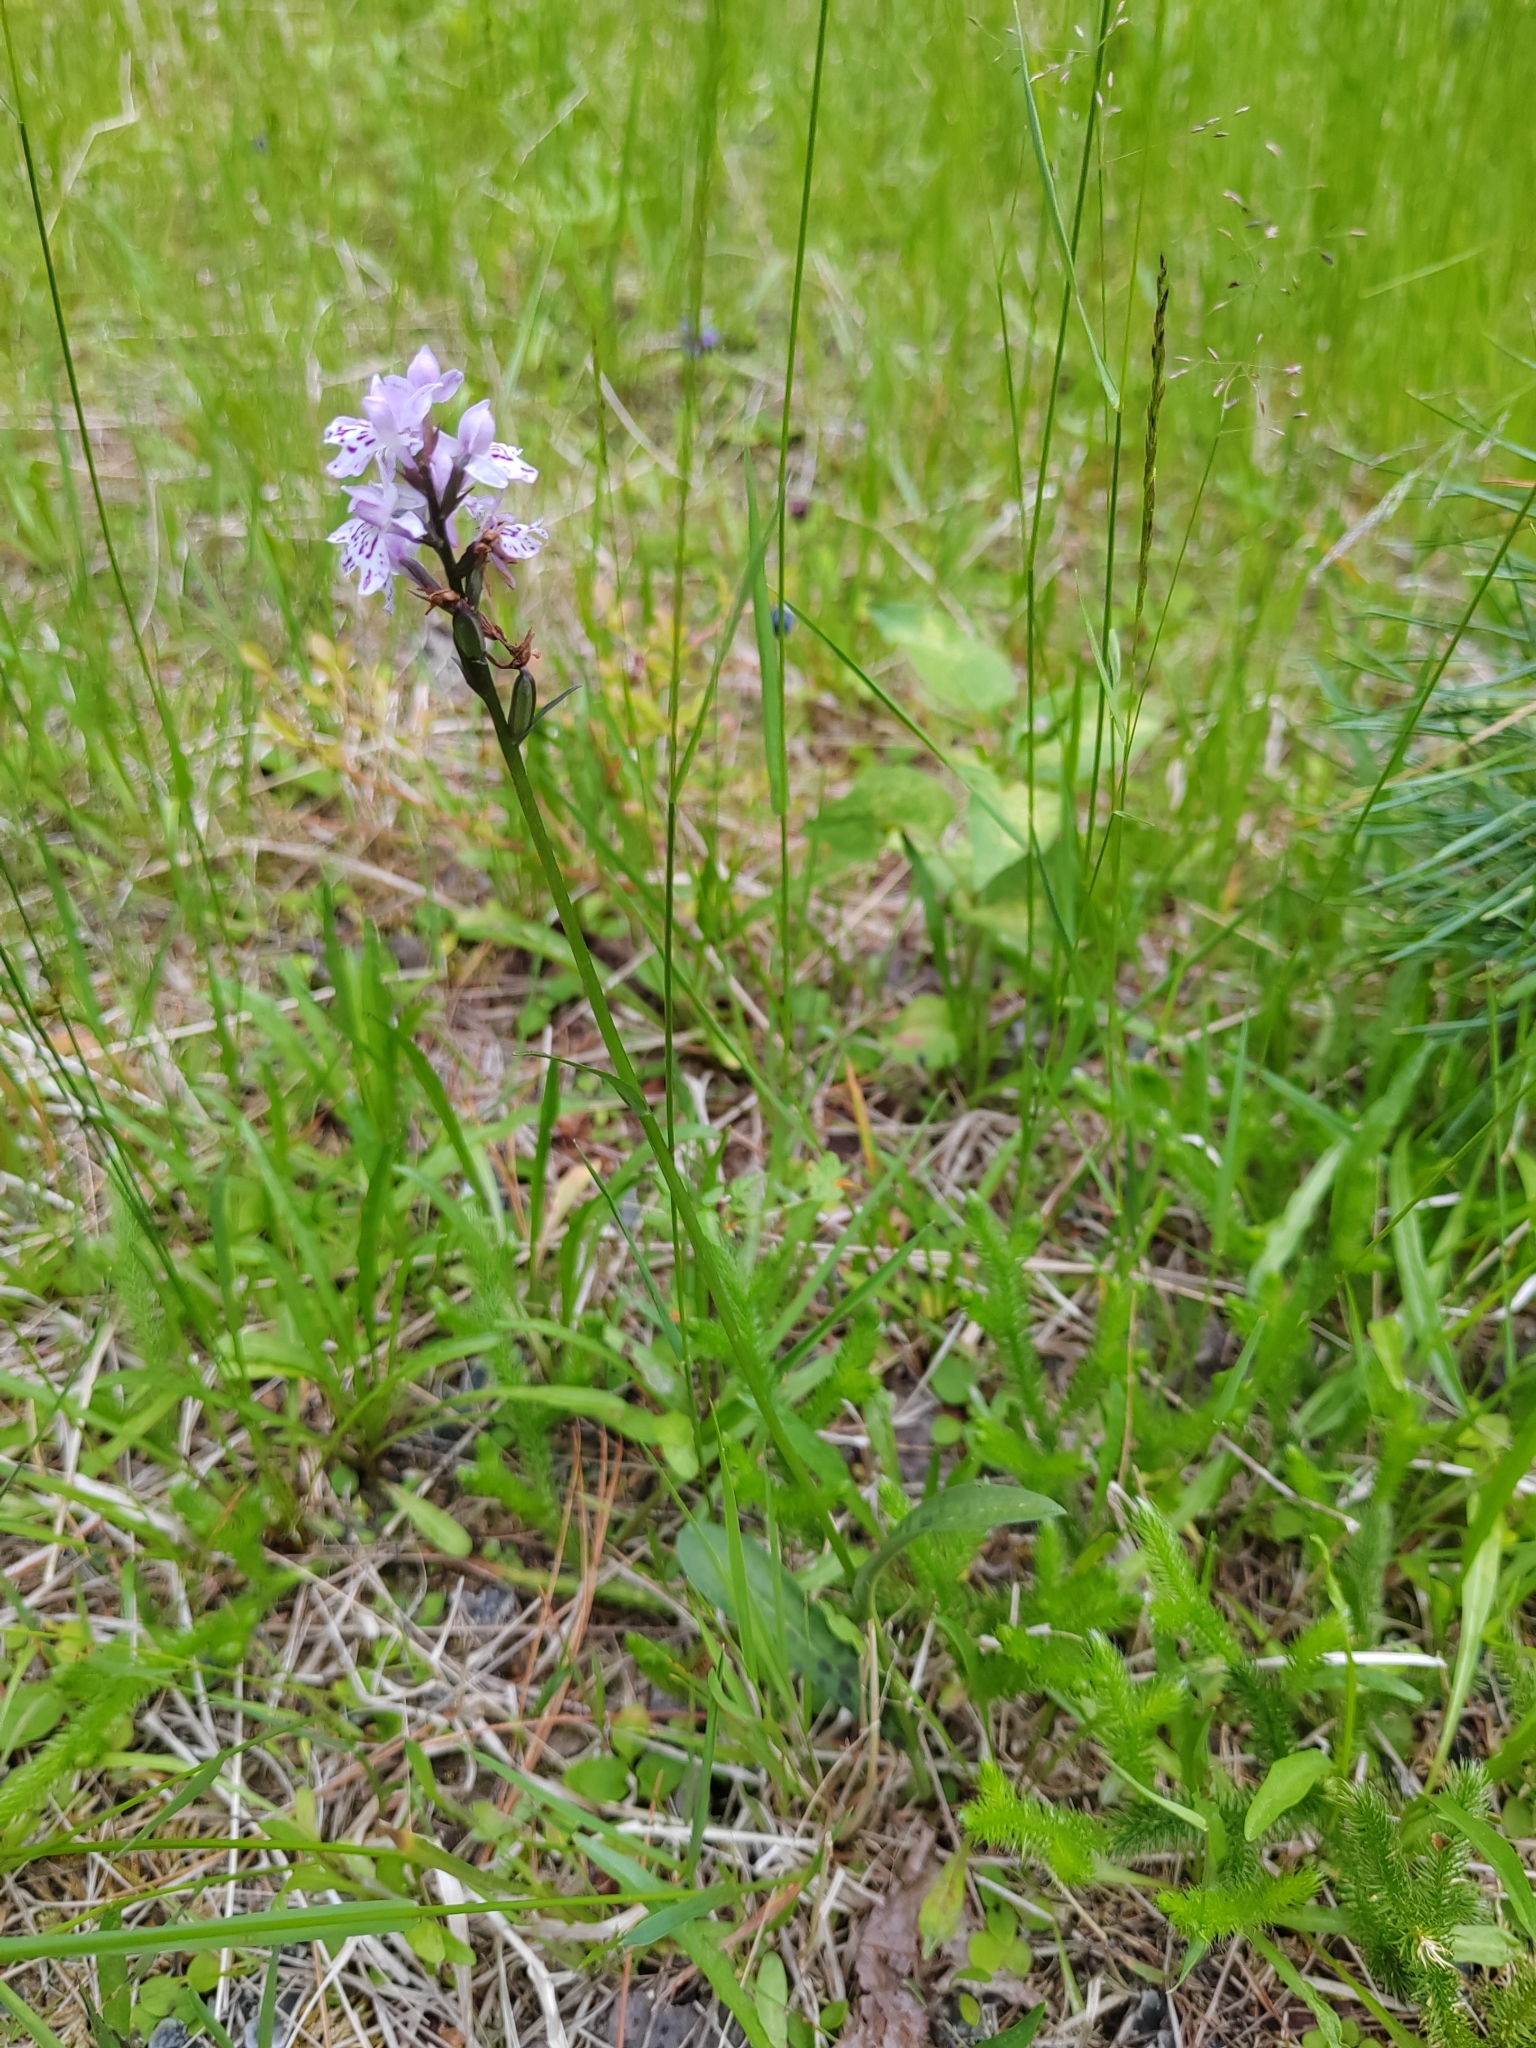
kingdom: Plantae
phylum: Tracheophyta
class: Liliopsida
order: Asparagales
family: Orchidaceae
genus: Dactylorhiza
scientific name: Dactylorhiza maculata
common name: Heath spotted-orchid
